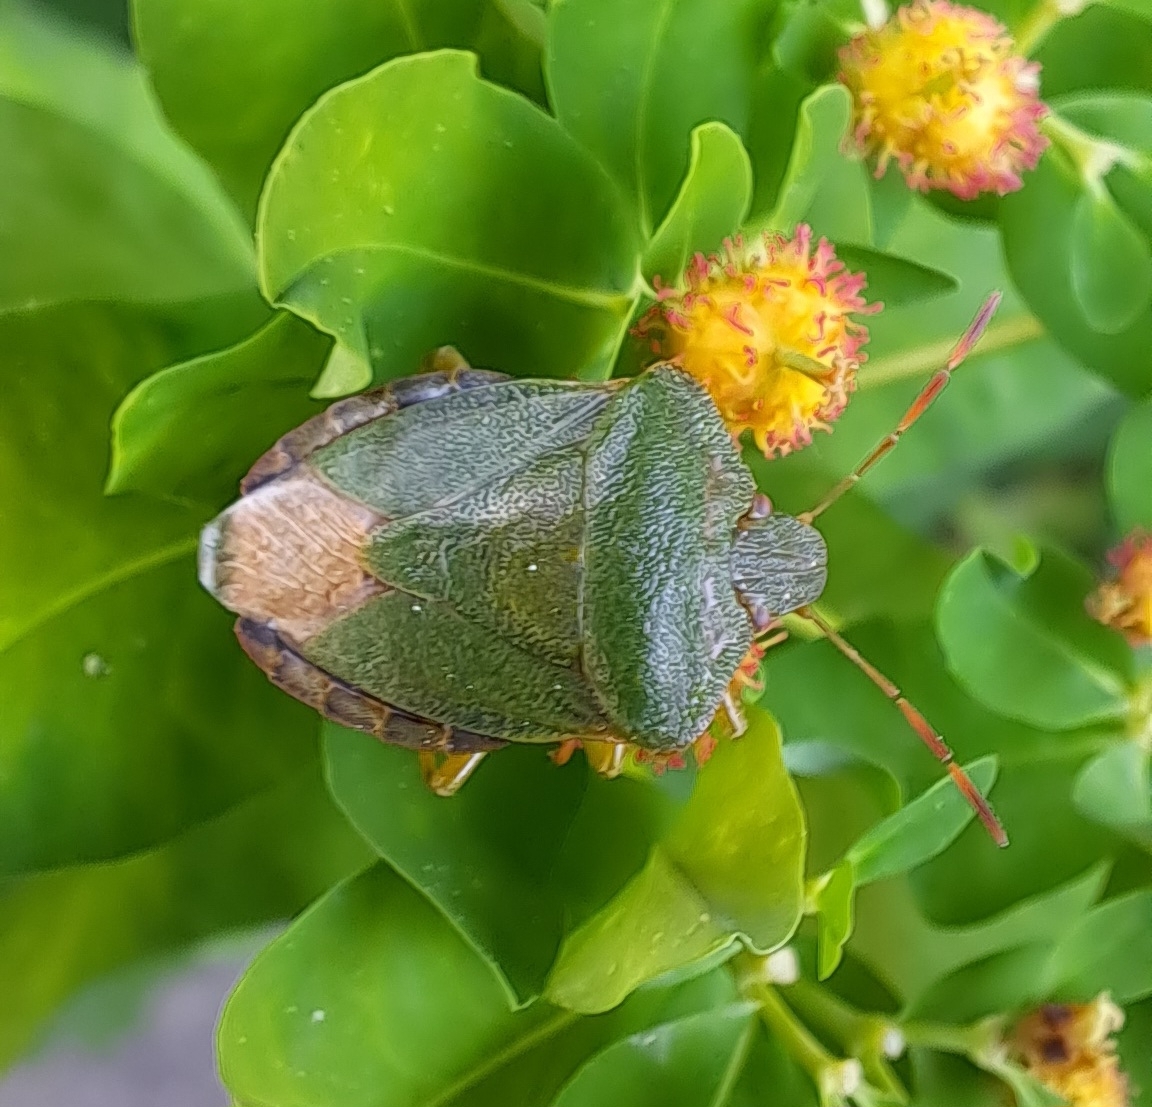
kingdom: Animalia
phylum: Arthropoda
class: Insecta
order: Hemiptera
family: Pentatomidae
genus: Palomena
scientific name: Palomena prasina
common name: Green shieldbug
